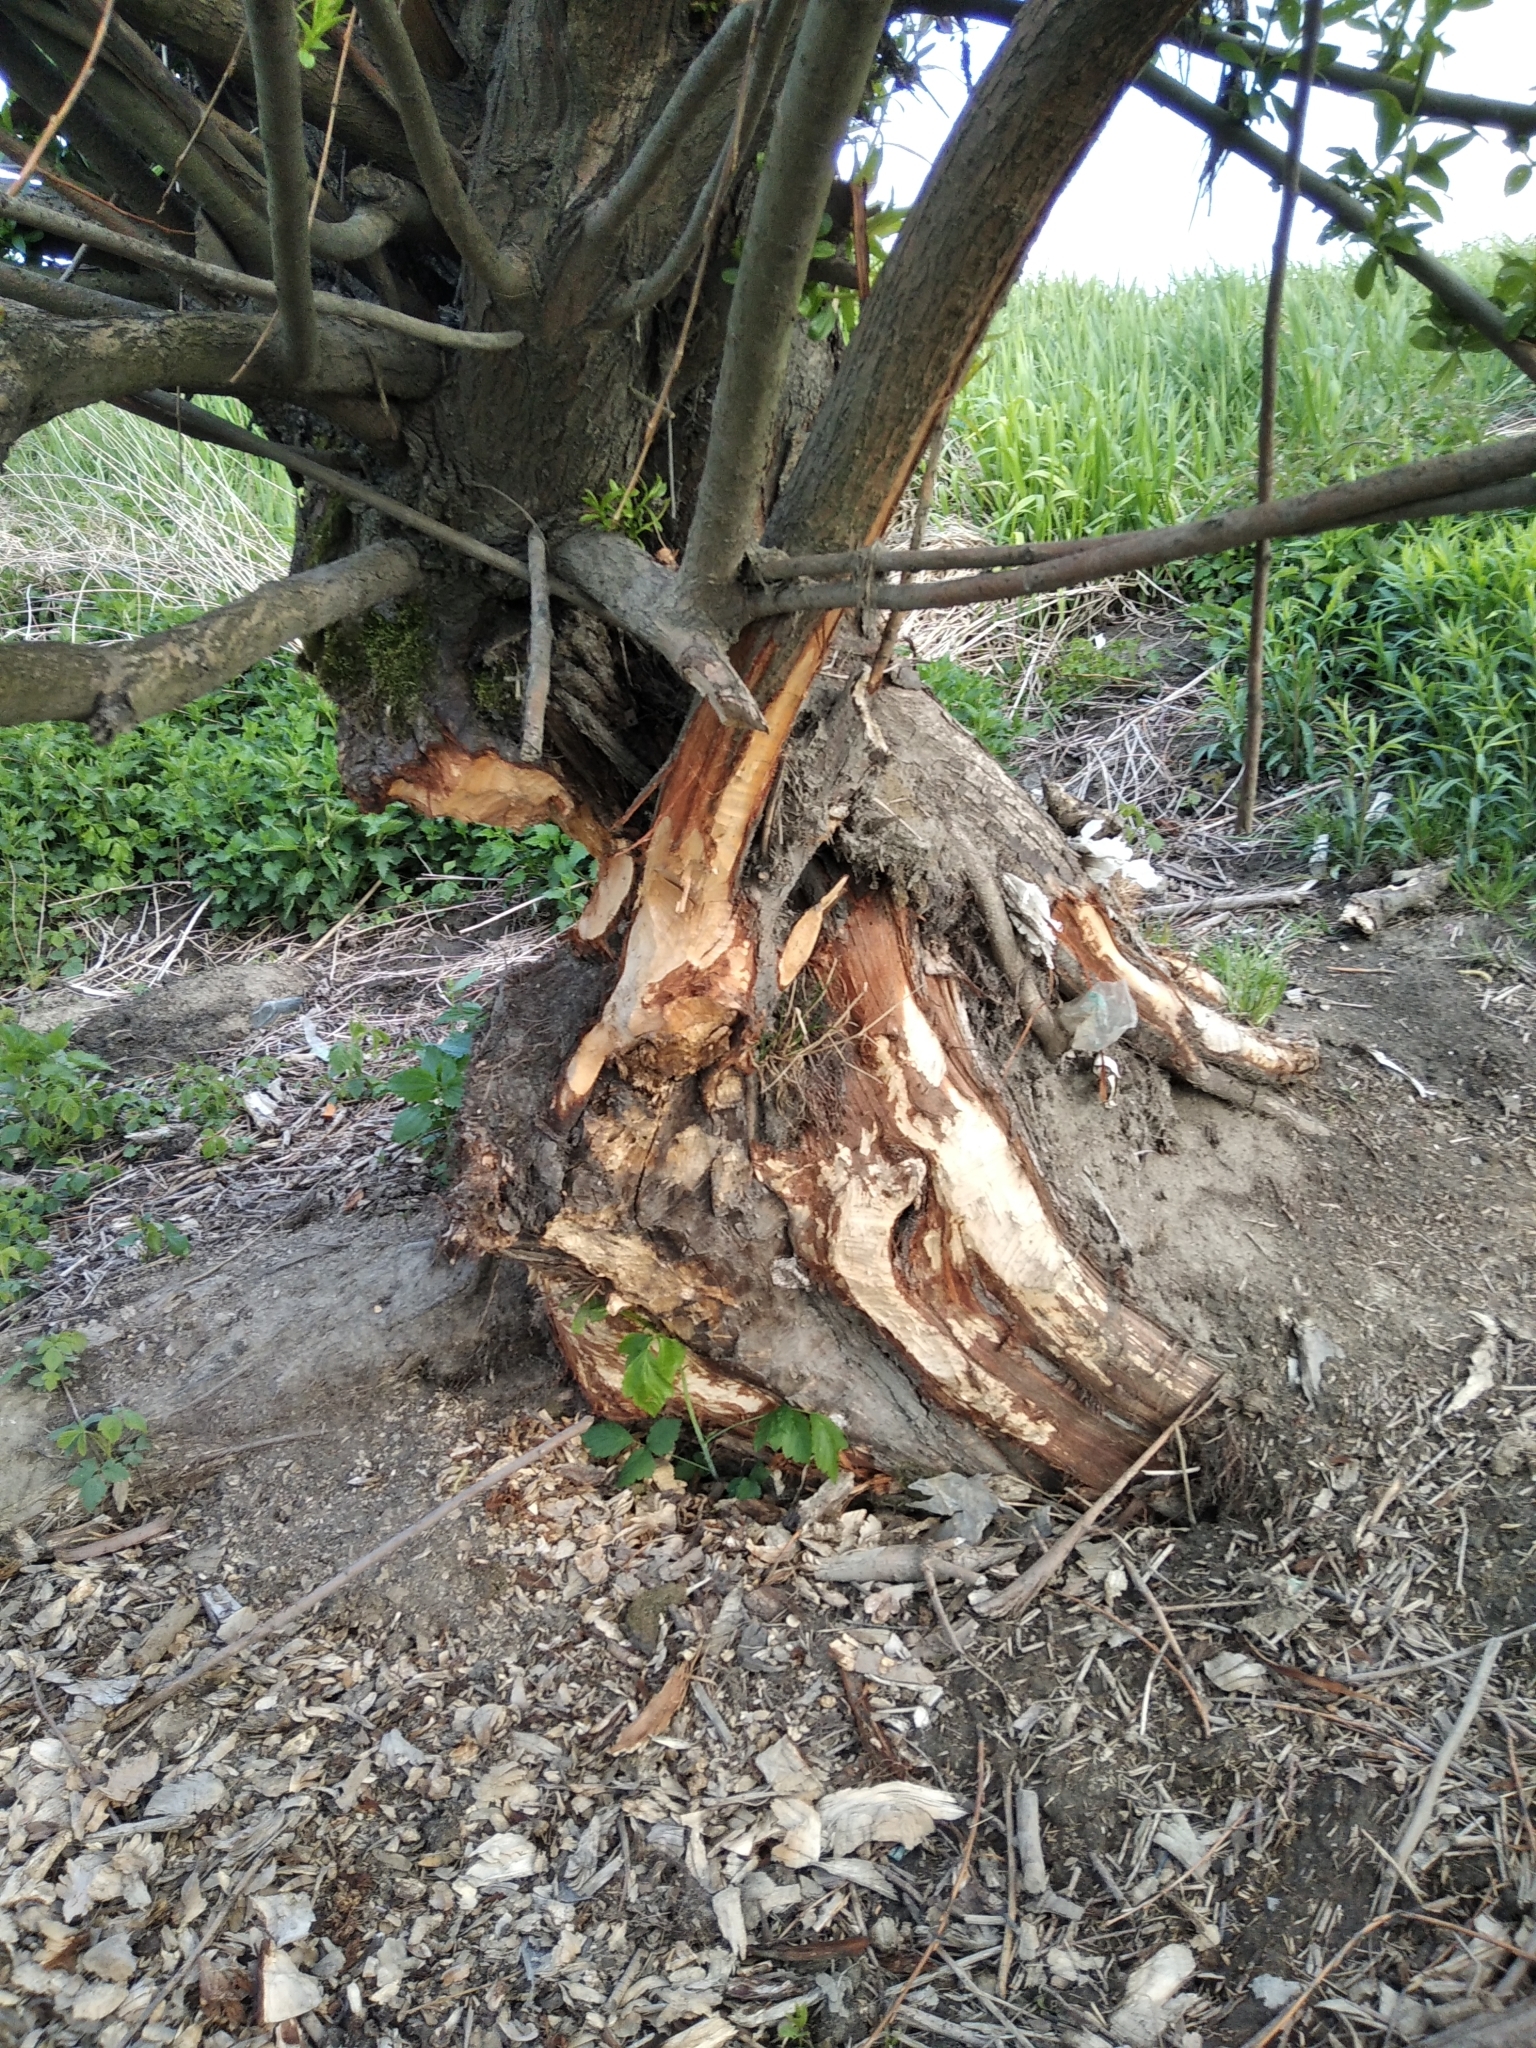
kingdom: Animalia
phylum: Chordata
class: Mammalia
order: Rodentia
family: Castoridae
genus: Castor
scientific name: Castor fiber
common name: Eurasian beaver
